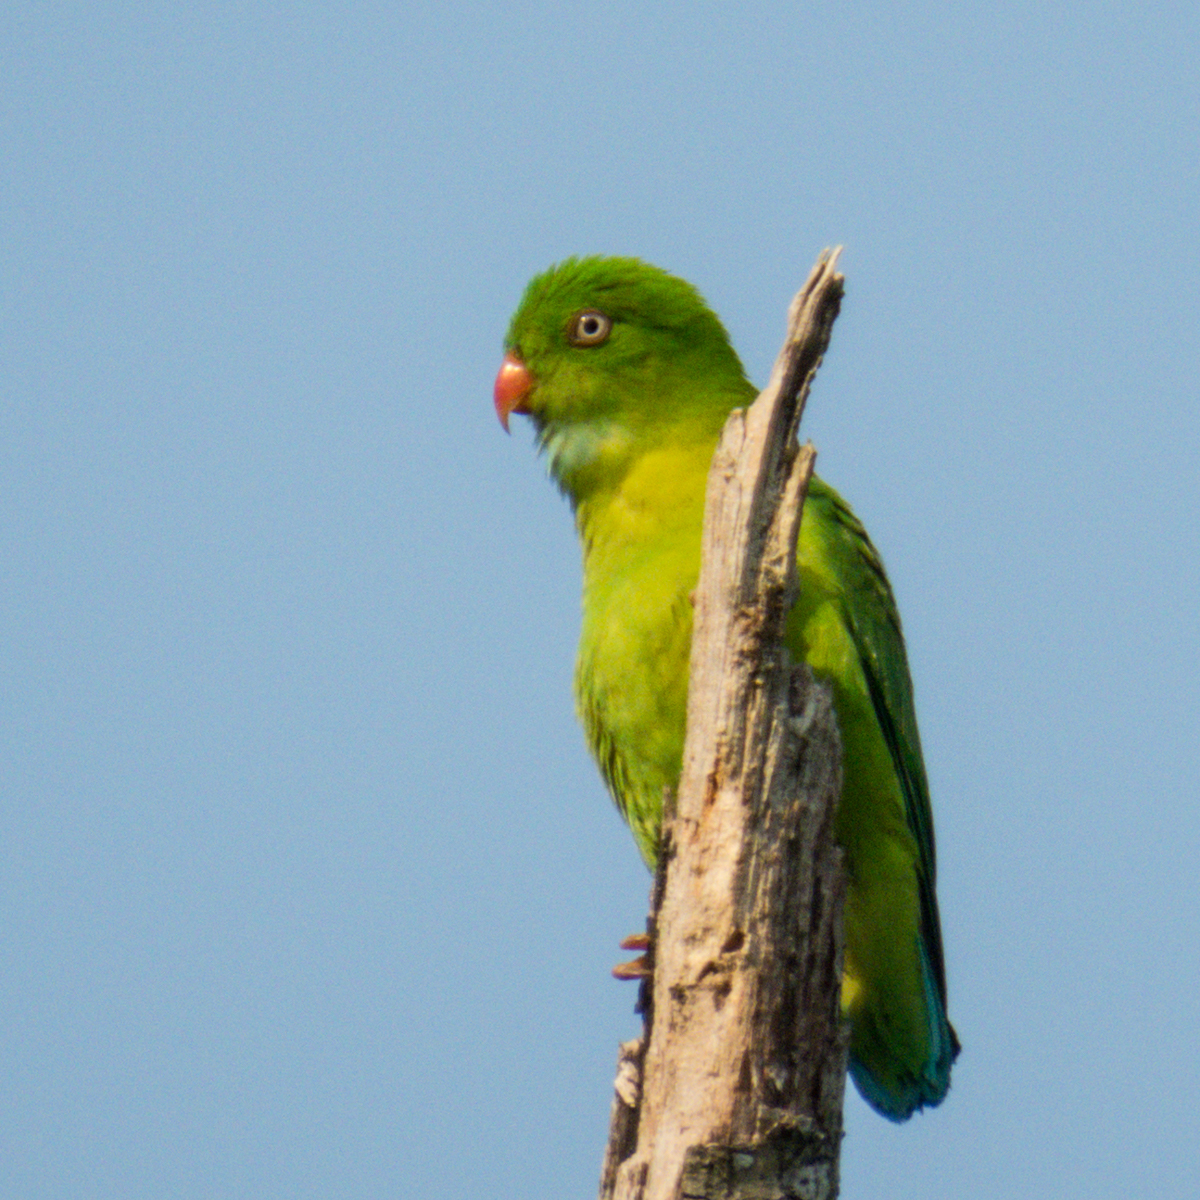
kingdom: Animalia
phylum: Chordata
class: Aves
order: Psittaciformes
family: Psittacidae
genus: Loriculus
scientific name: Loriculus vernalis
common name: Vernal hanging parrot
